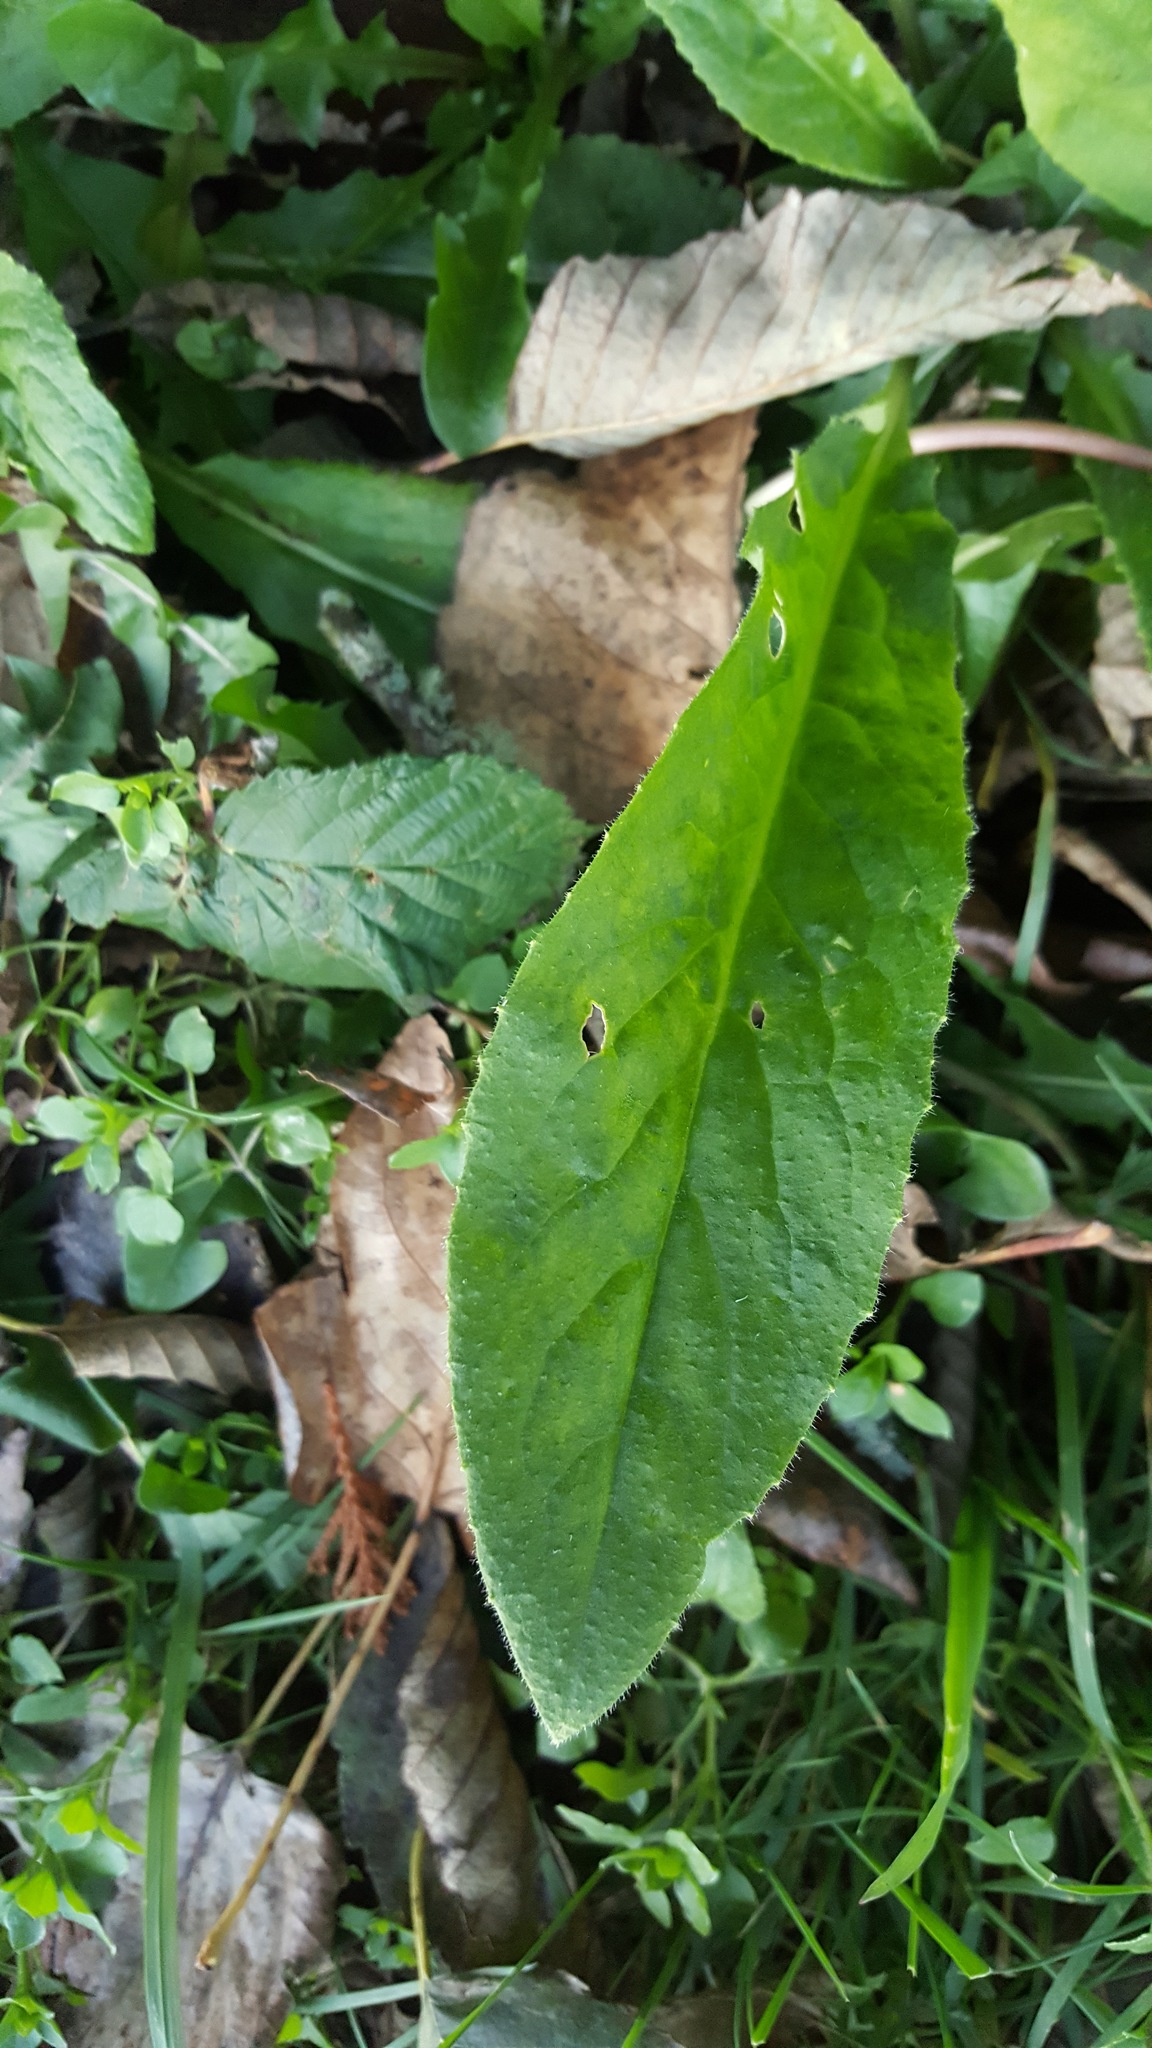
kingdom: Plantae
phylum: Tracheophyta
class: Magnoliopsida
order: Brassicales
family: Brassicaceae
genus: Hesperis
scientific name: Hesperis matronalis
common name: Dame's-violet
